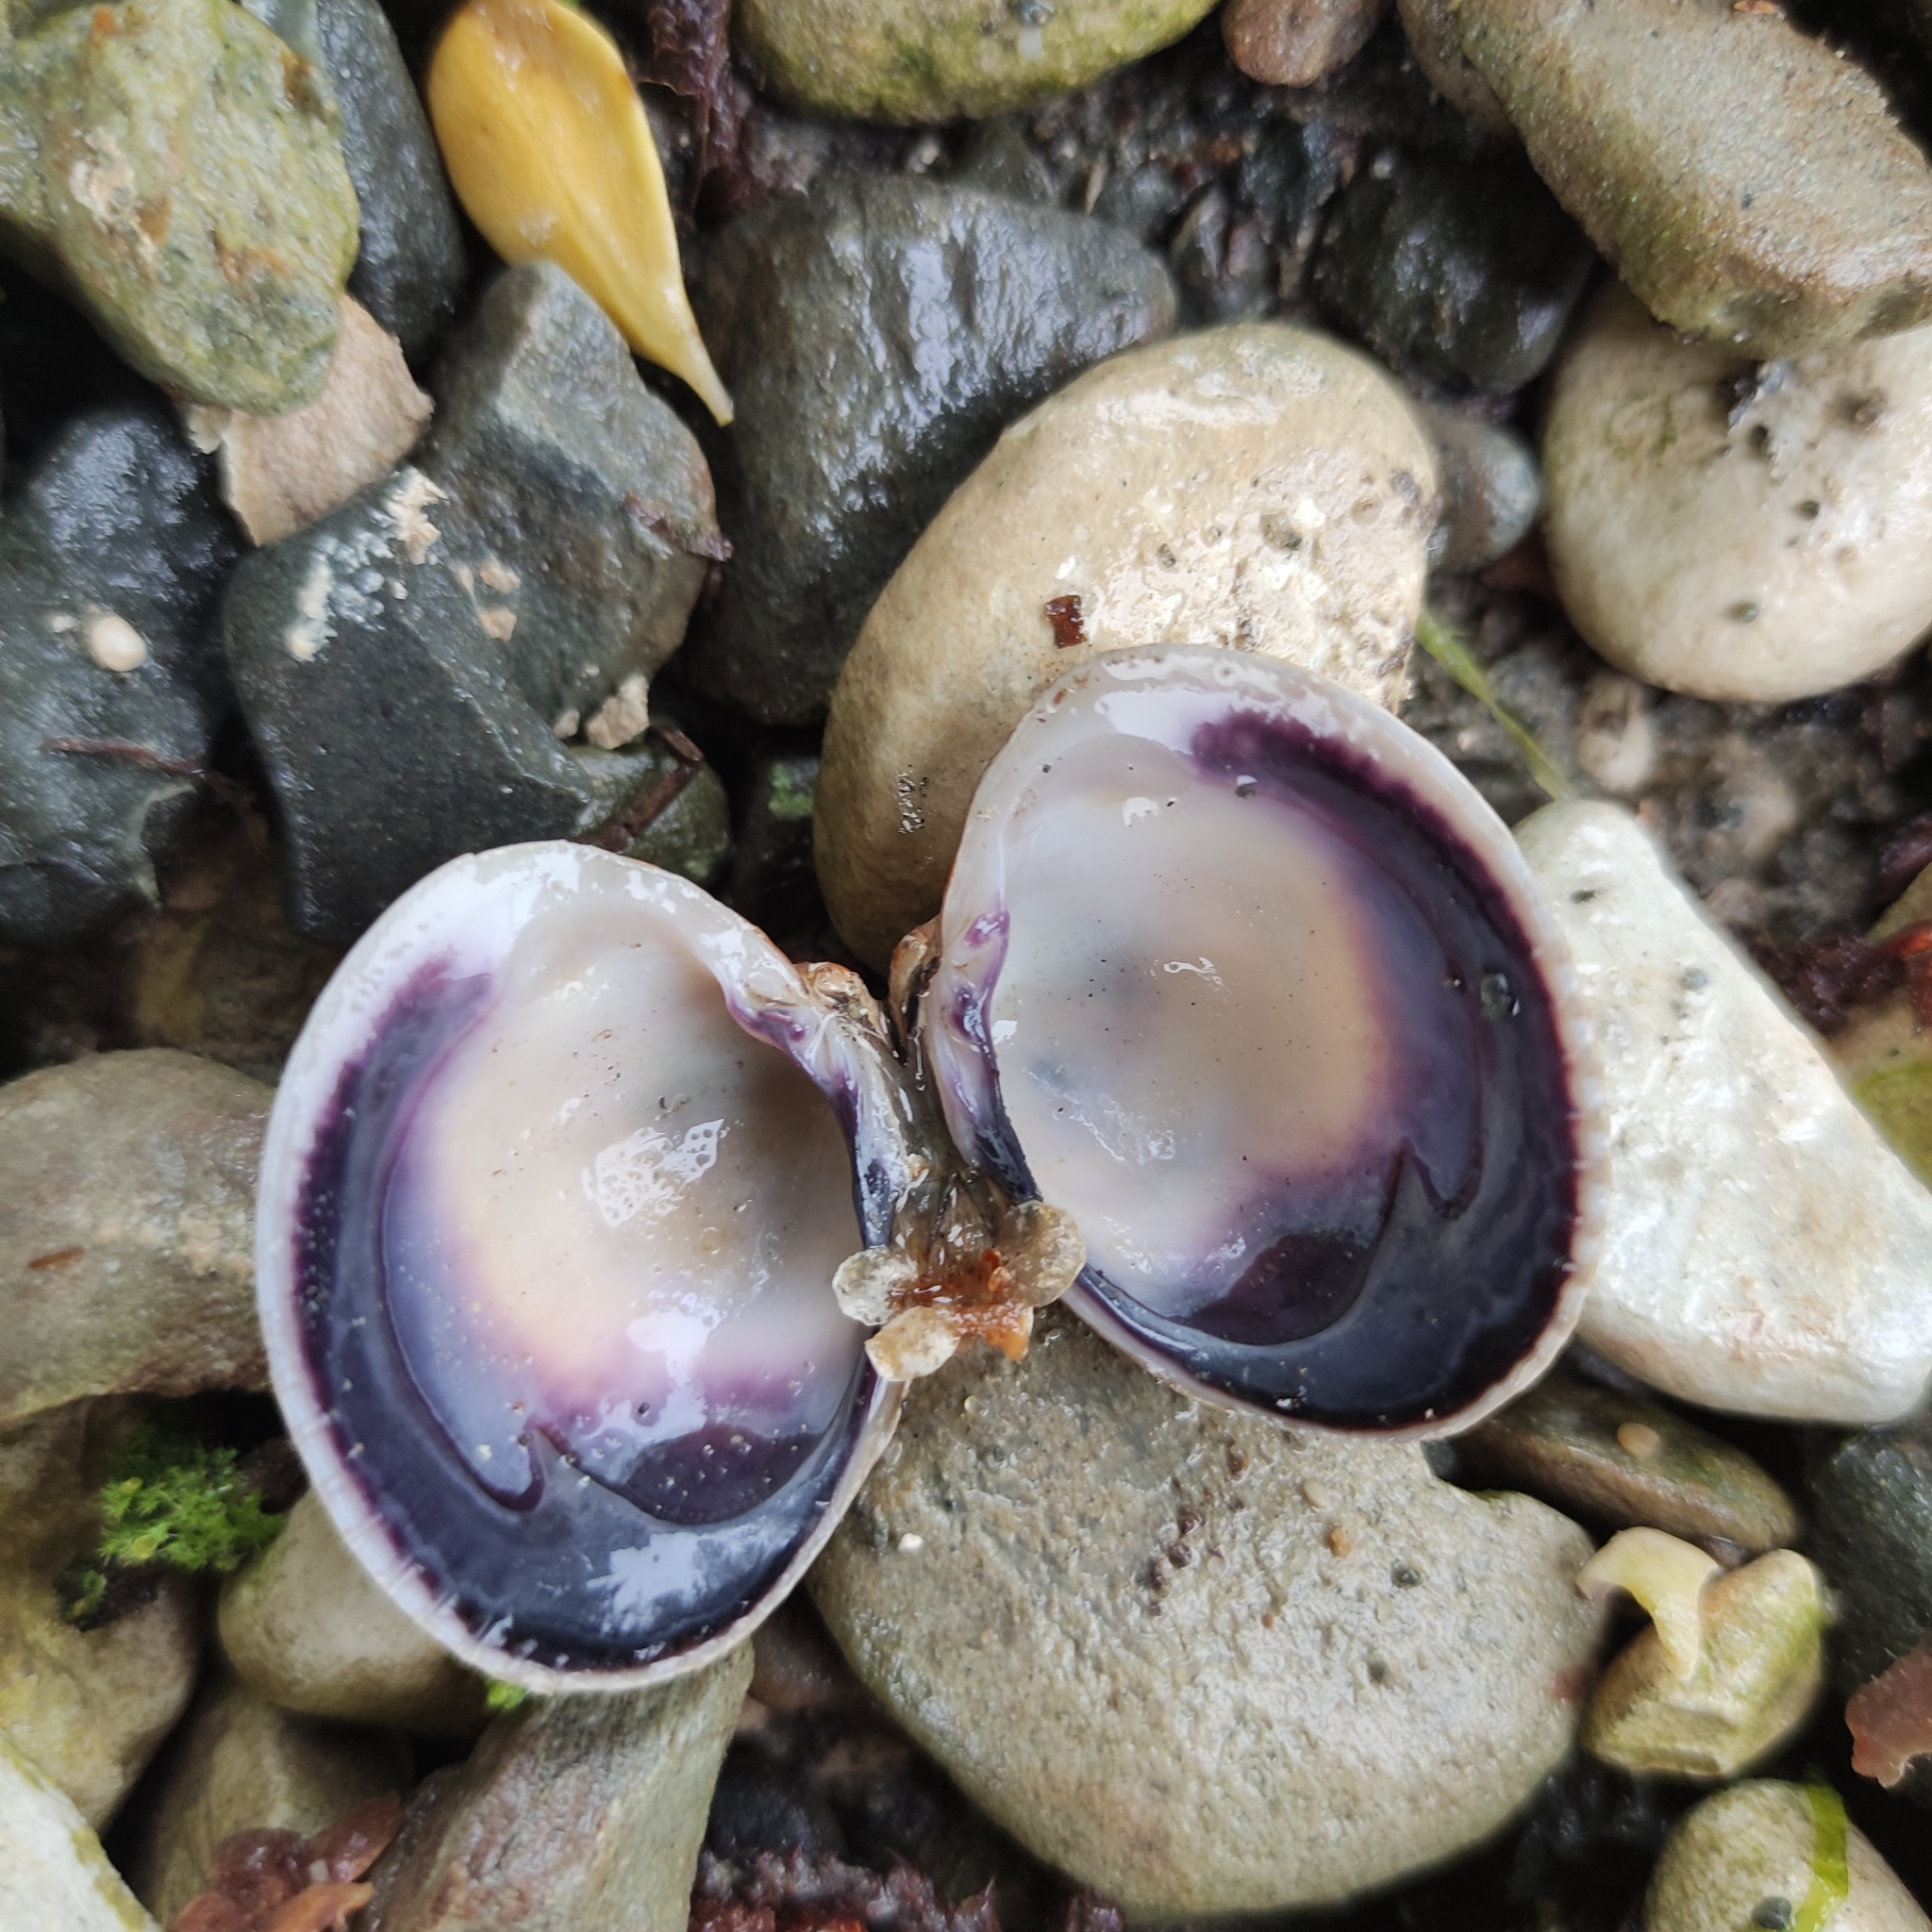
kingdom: Animalia
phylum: Mollusca
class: Bivalvia
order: Venerida
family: Veneridae
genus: Austrovenus
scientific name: Austrovenus stutchburyi
